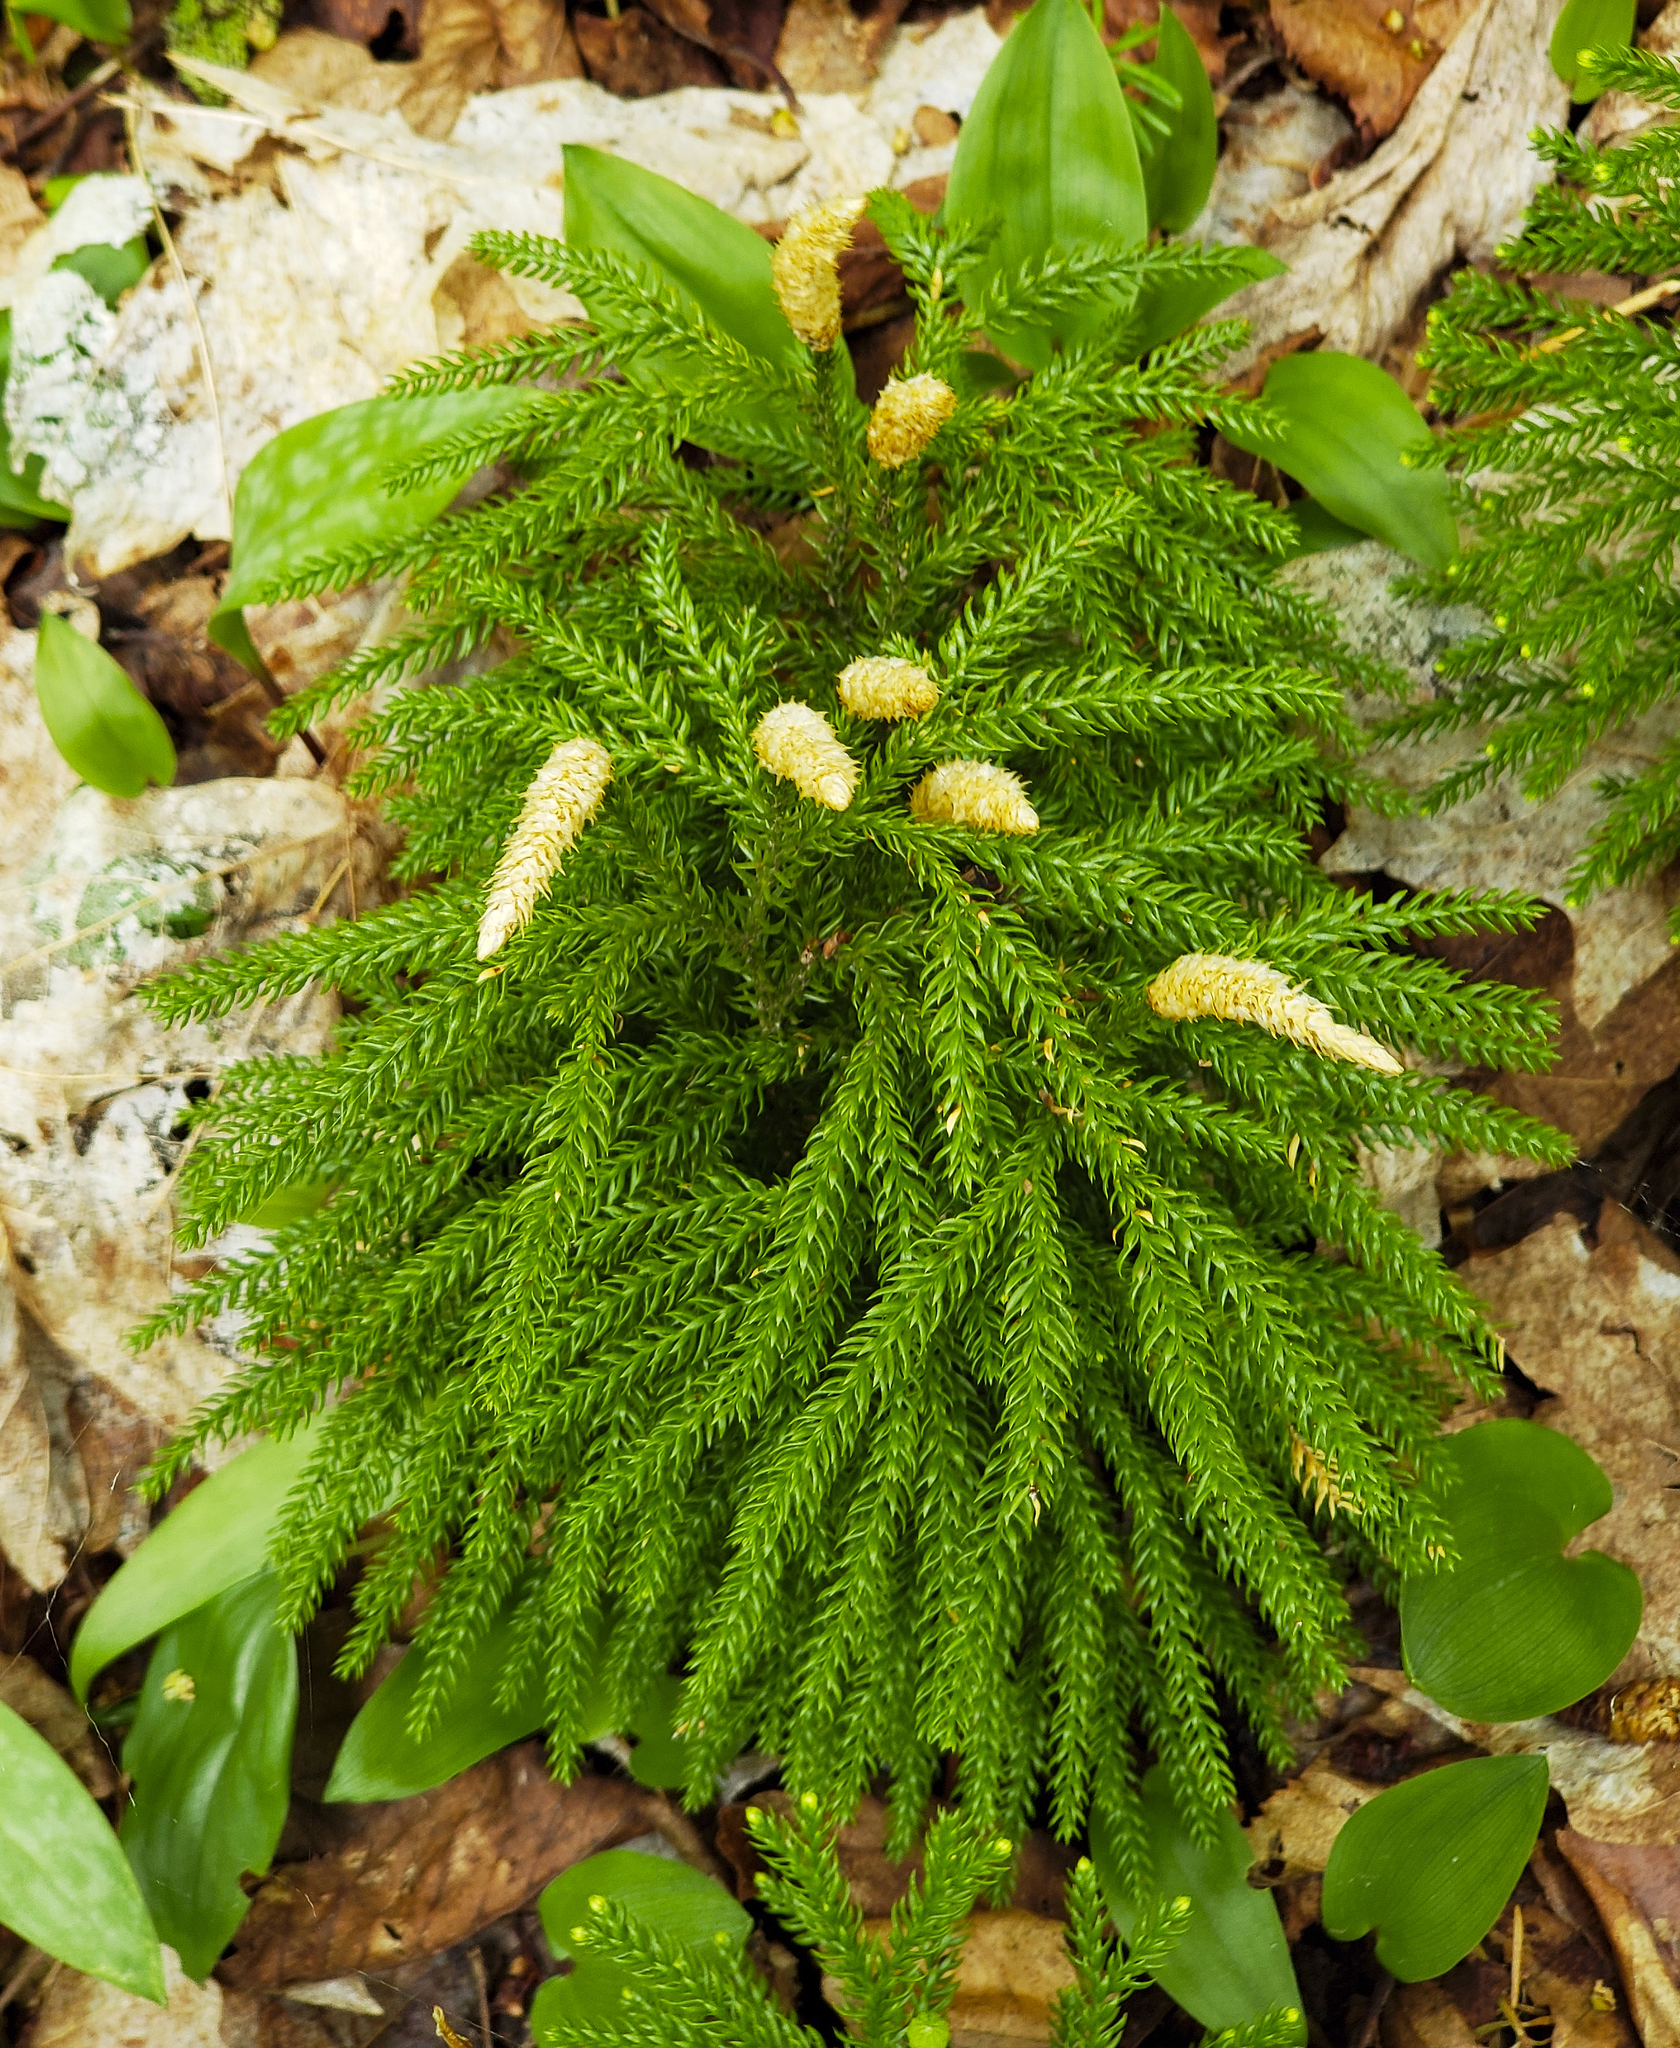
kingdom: Plantae
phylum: Tracheophyta
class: Lycopodiopsida
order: Lycopodiales
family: Lycopodiaceae
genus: Dendrolycopodium
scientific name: Dendrolycopodium dendroideum
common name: Northern tree-clubmoss
